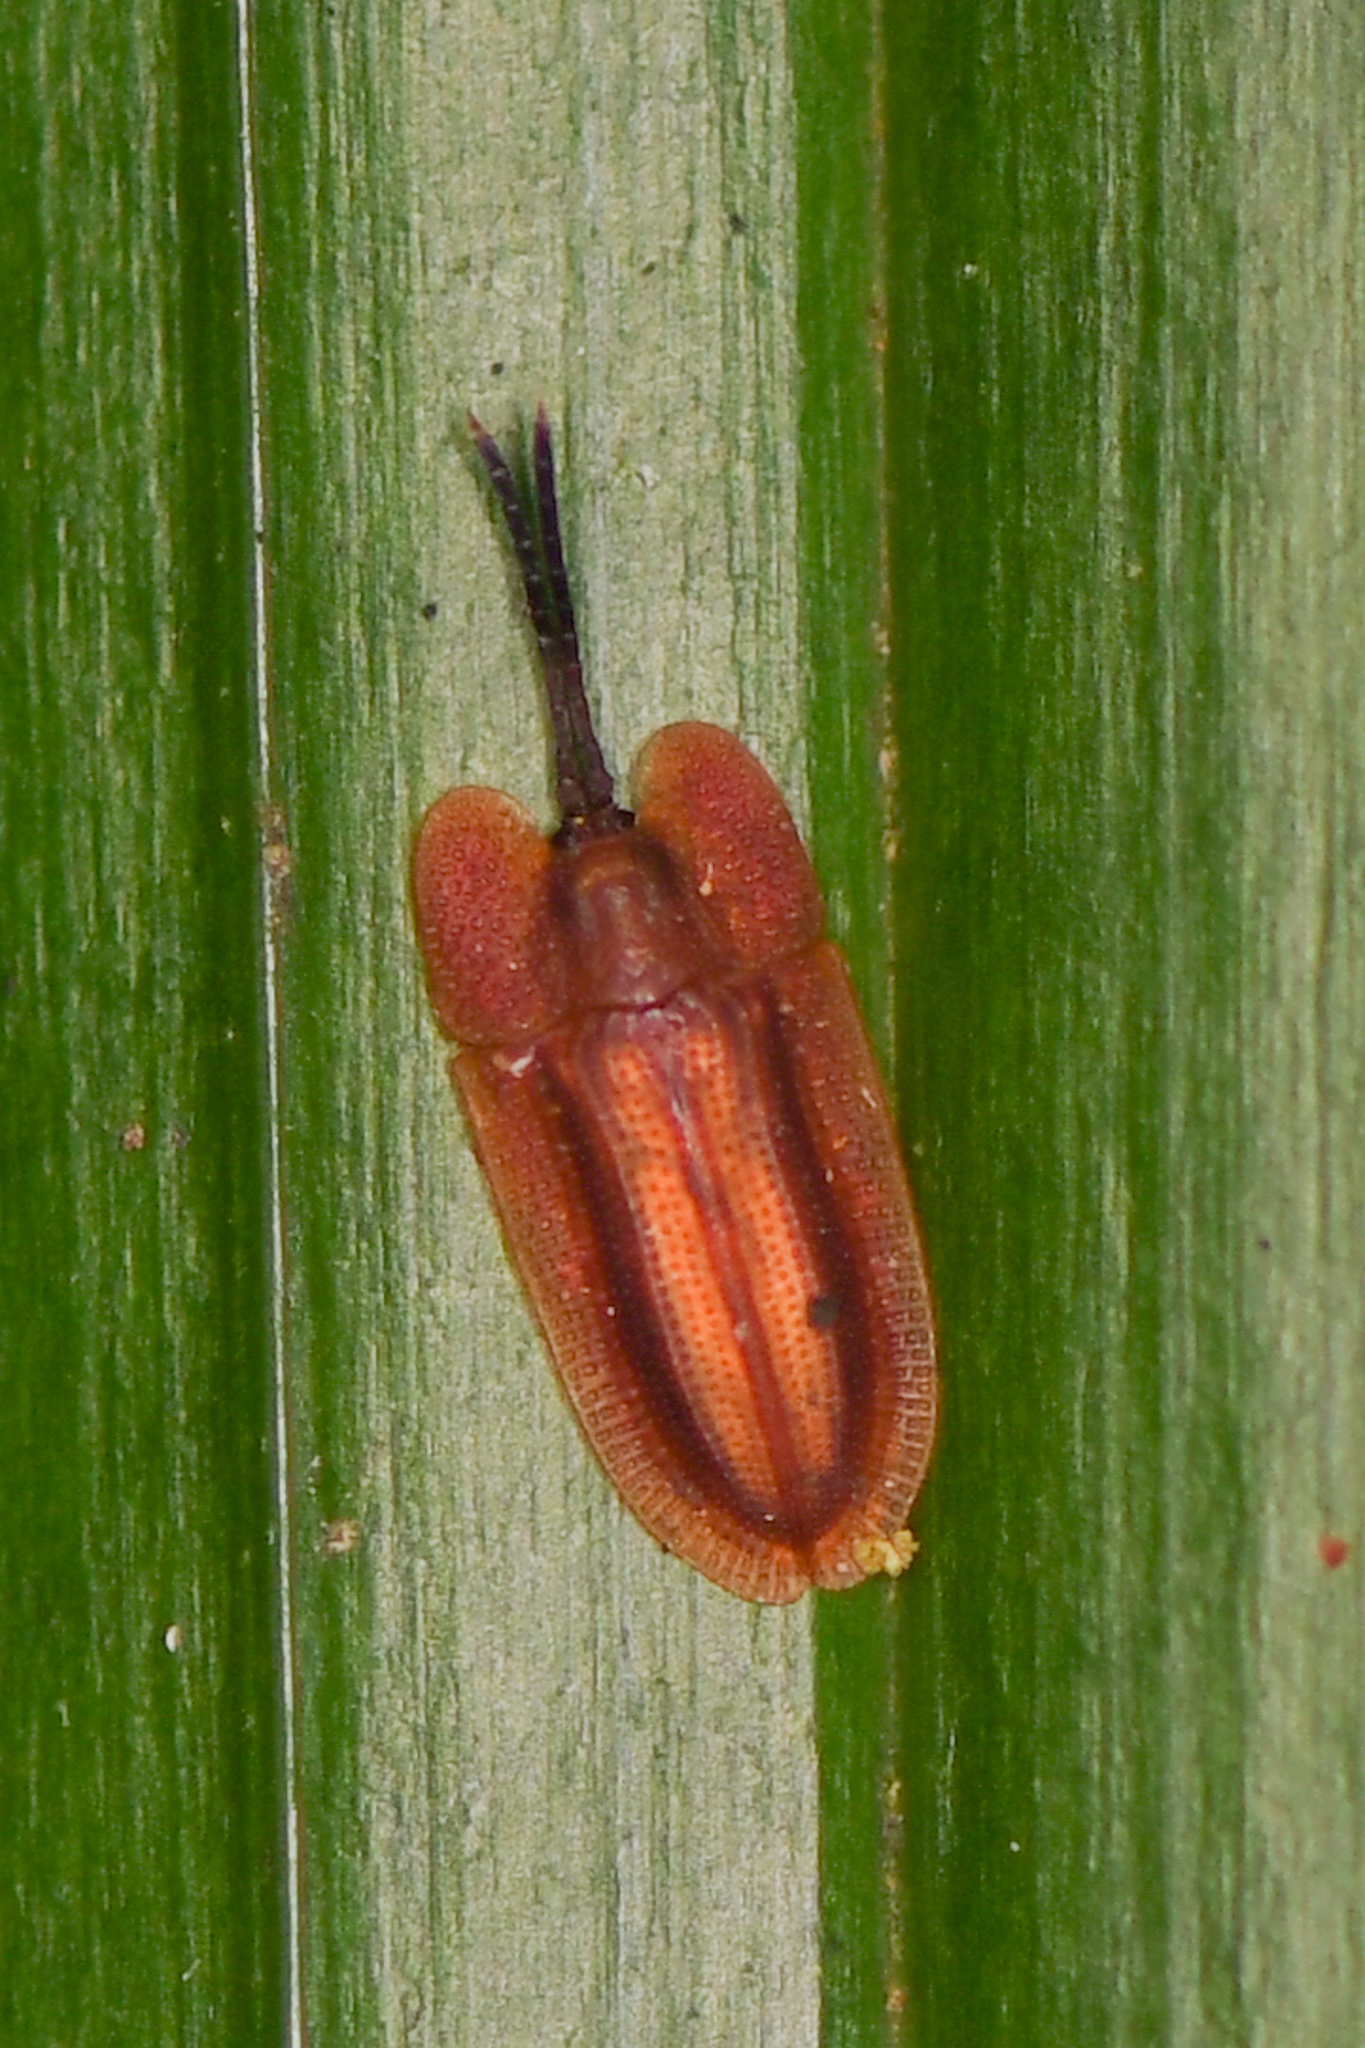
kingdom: Animalia
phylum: Arthropoda
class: Insecta
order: Coleoptera
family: Chrysomelidae
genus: Delocrania
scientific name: Delocrania panamensis
